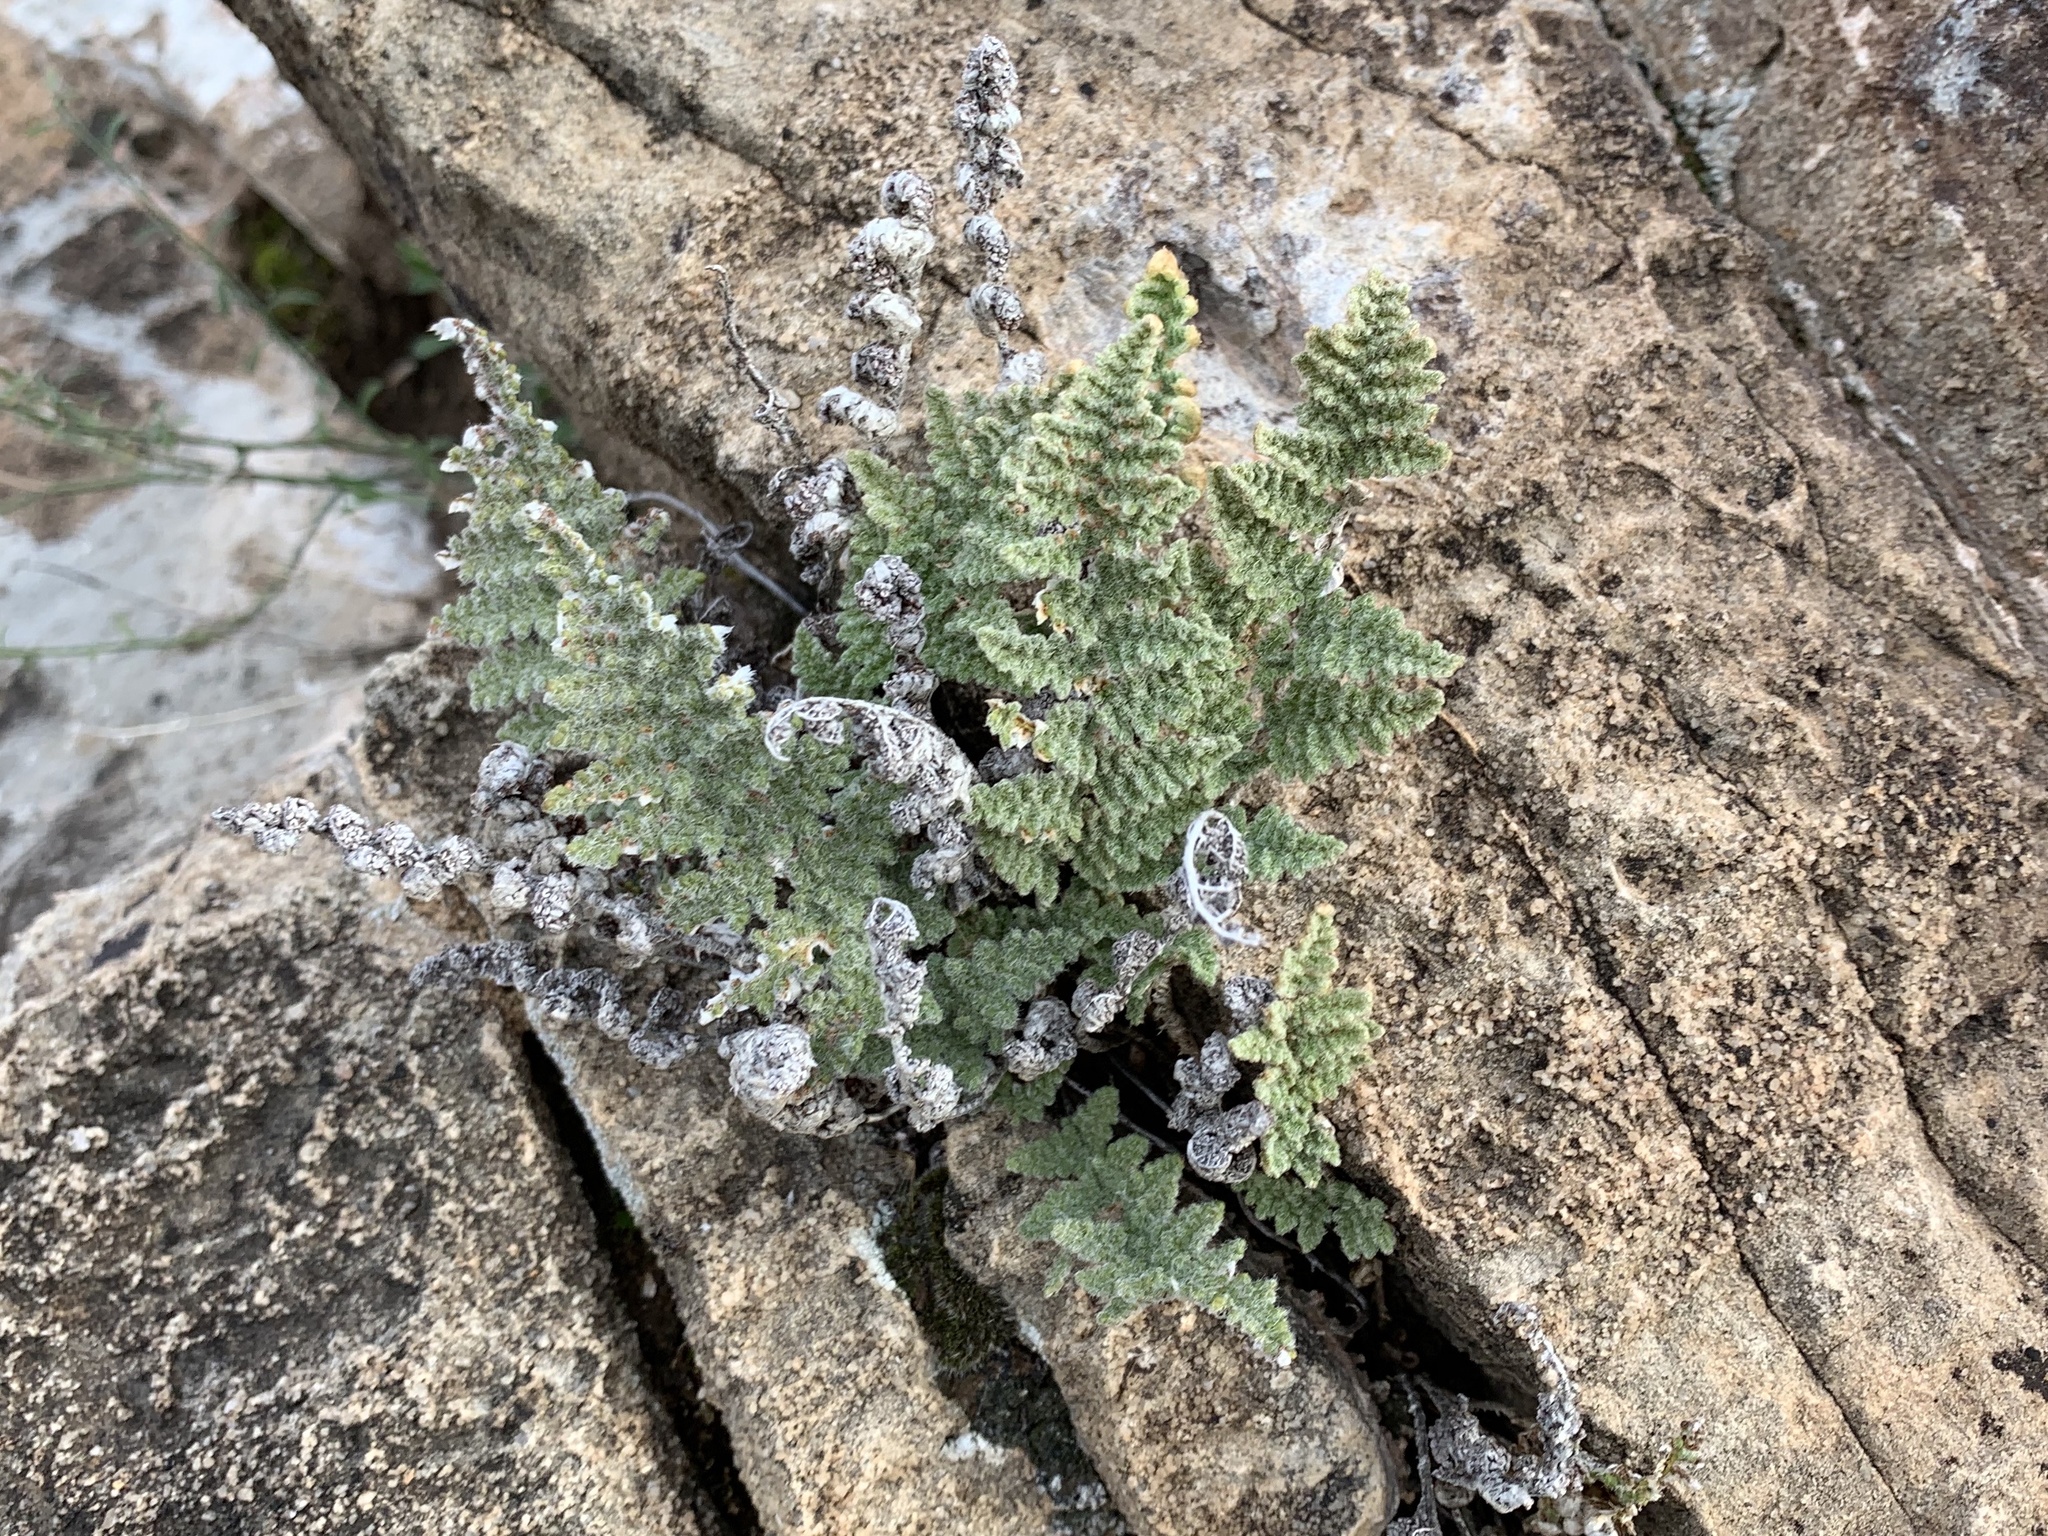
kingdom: Plantae
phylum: Tracheophyta
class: Polypodiopsida
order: Polypodiales
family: Pteridaceae
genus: Myriopteris
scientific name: Myriopteris windhamii
